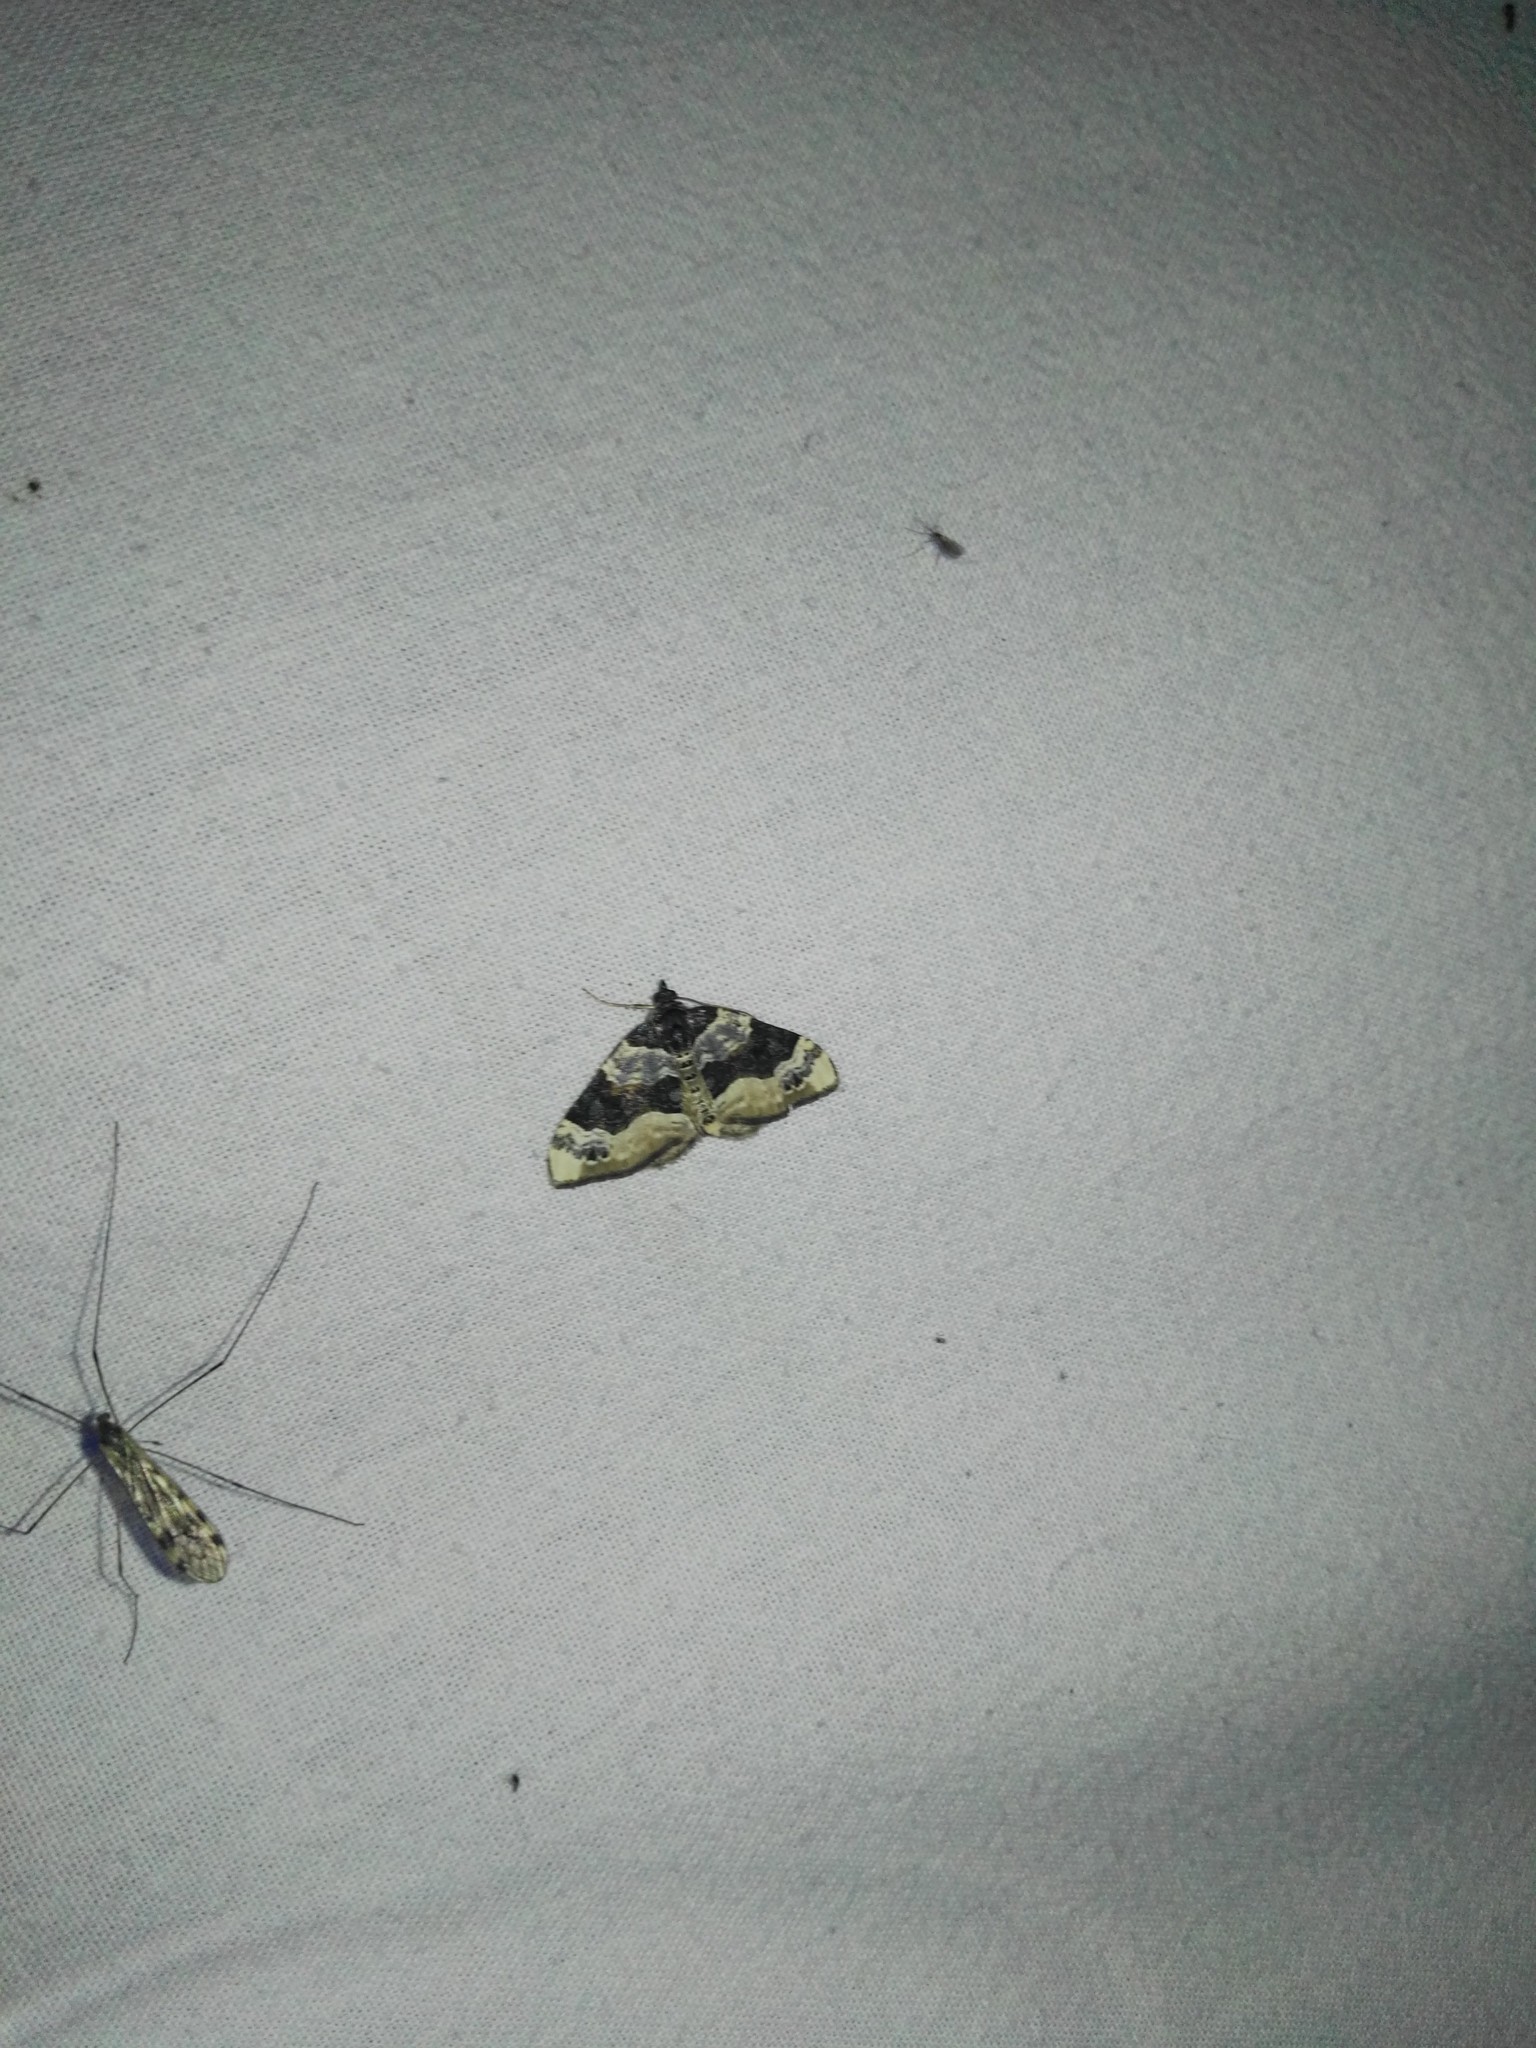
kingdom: Animalia
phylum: Arthropoda
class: Insecta
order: Lepidoptera
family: Geometridae
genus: Cosmorhoe
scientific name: Cosmorhoe ocellata
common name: Purple bar
